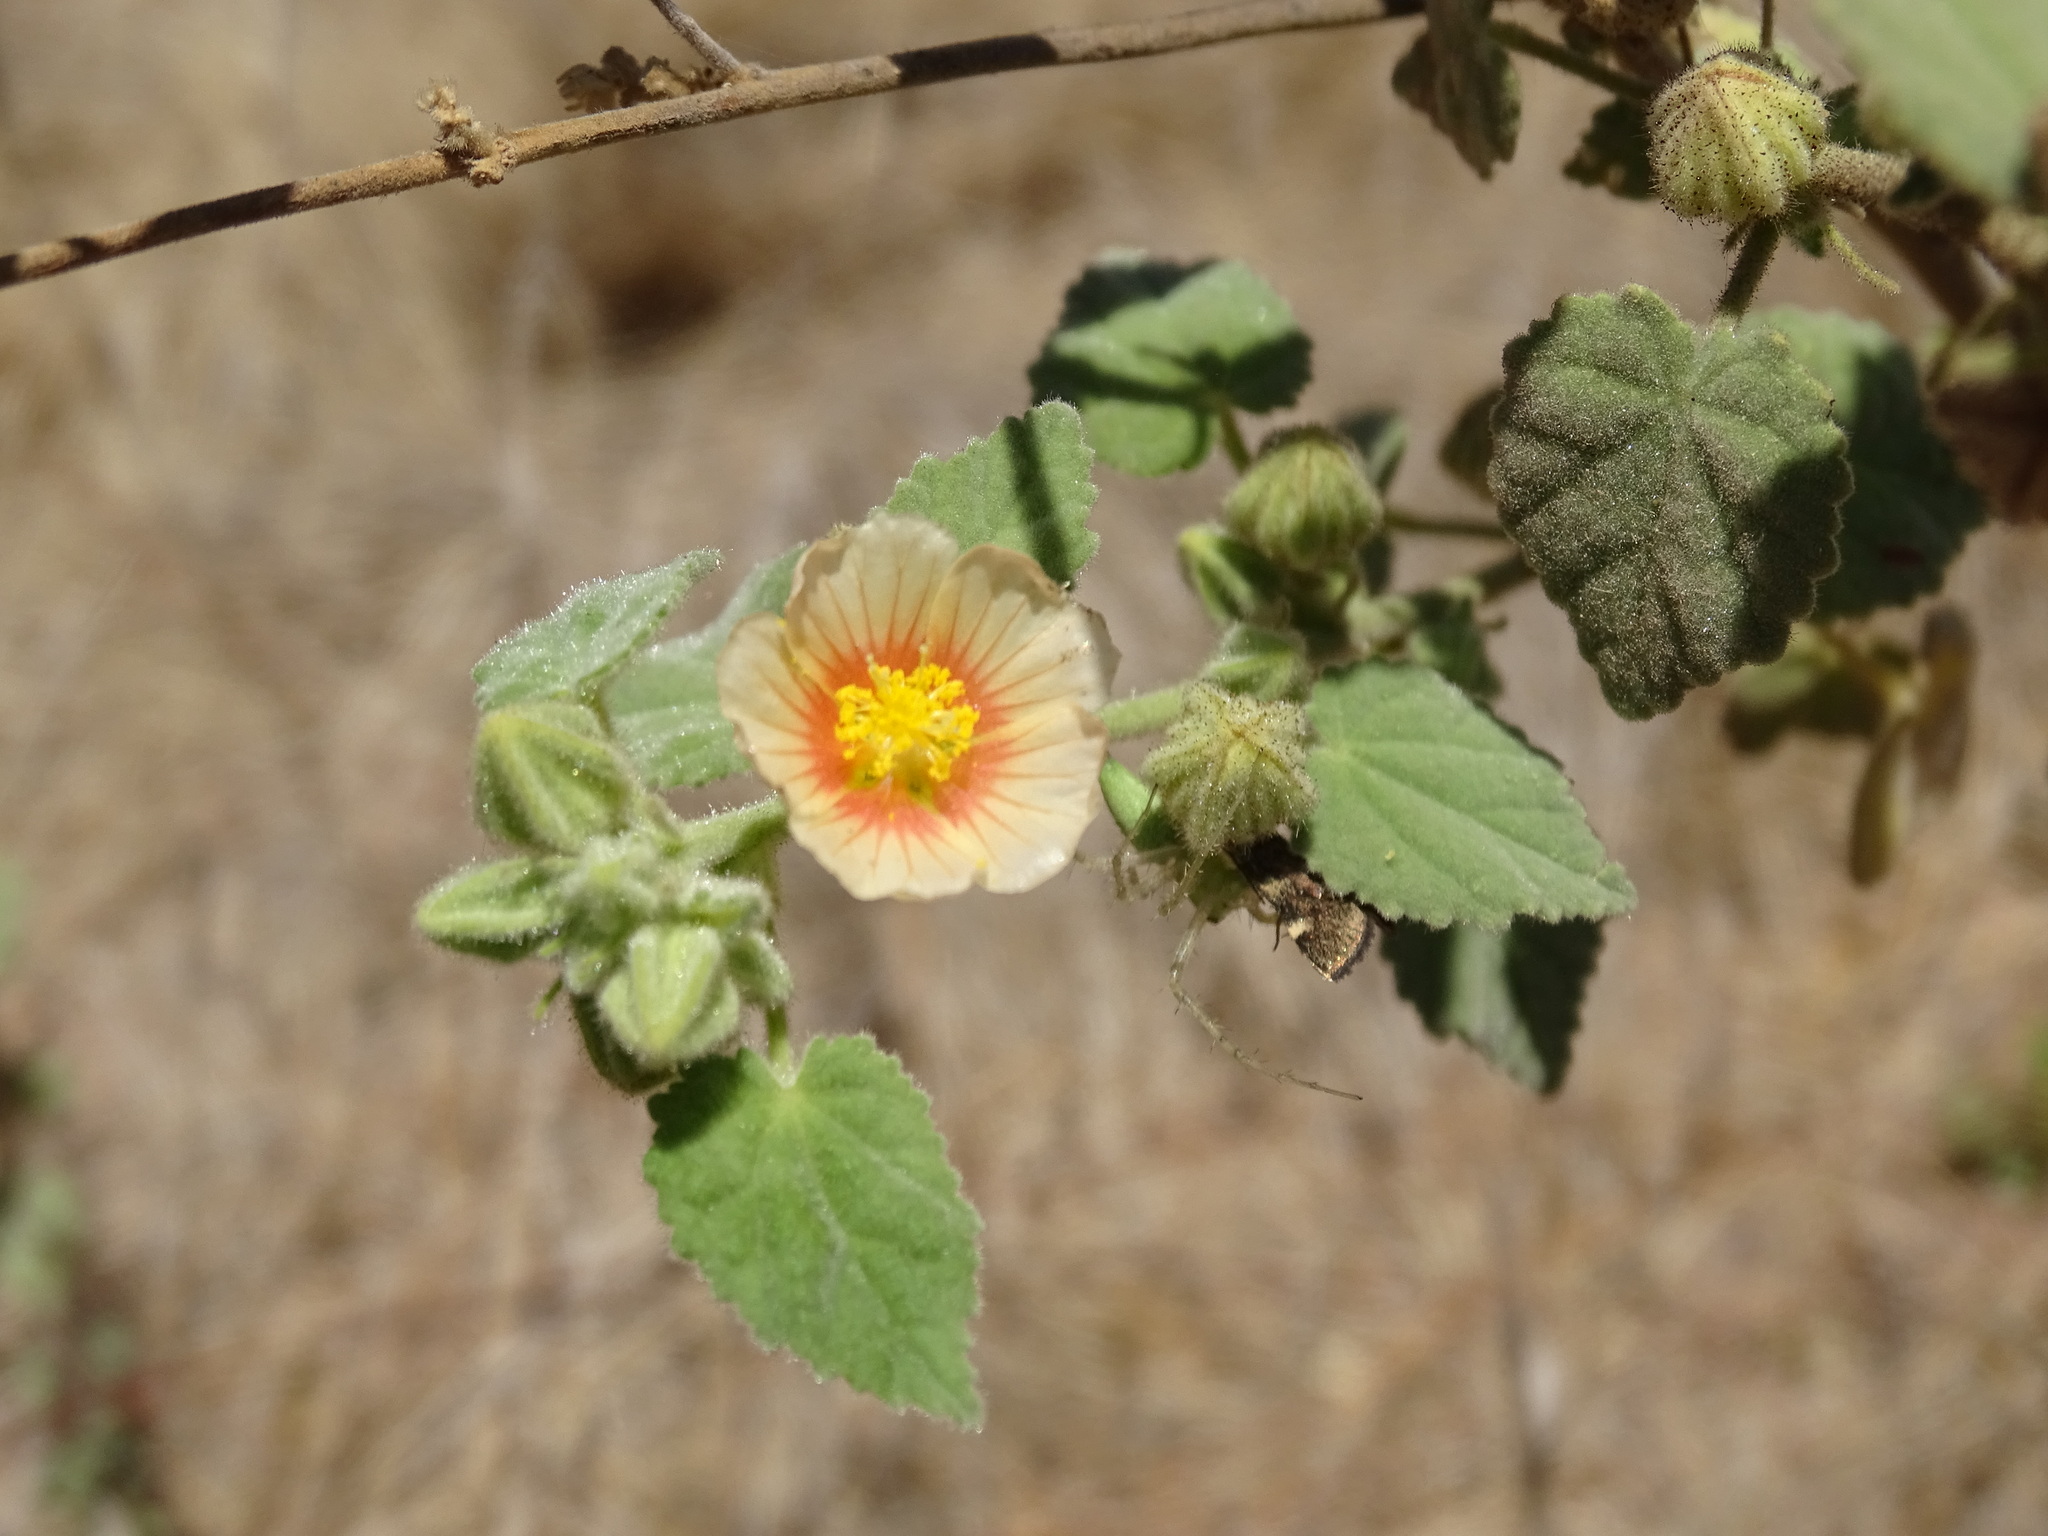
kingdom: Plantae
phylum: Tracheophyta
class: Magnoliopsida
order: Malvales
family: Malvaceae
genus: Sida
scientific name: Sida cordifolia
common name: Ilima
